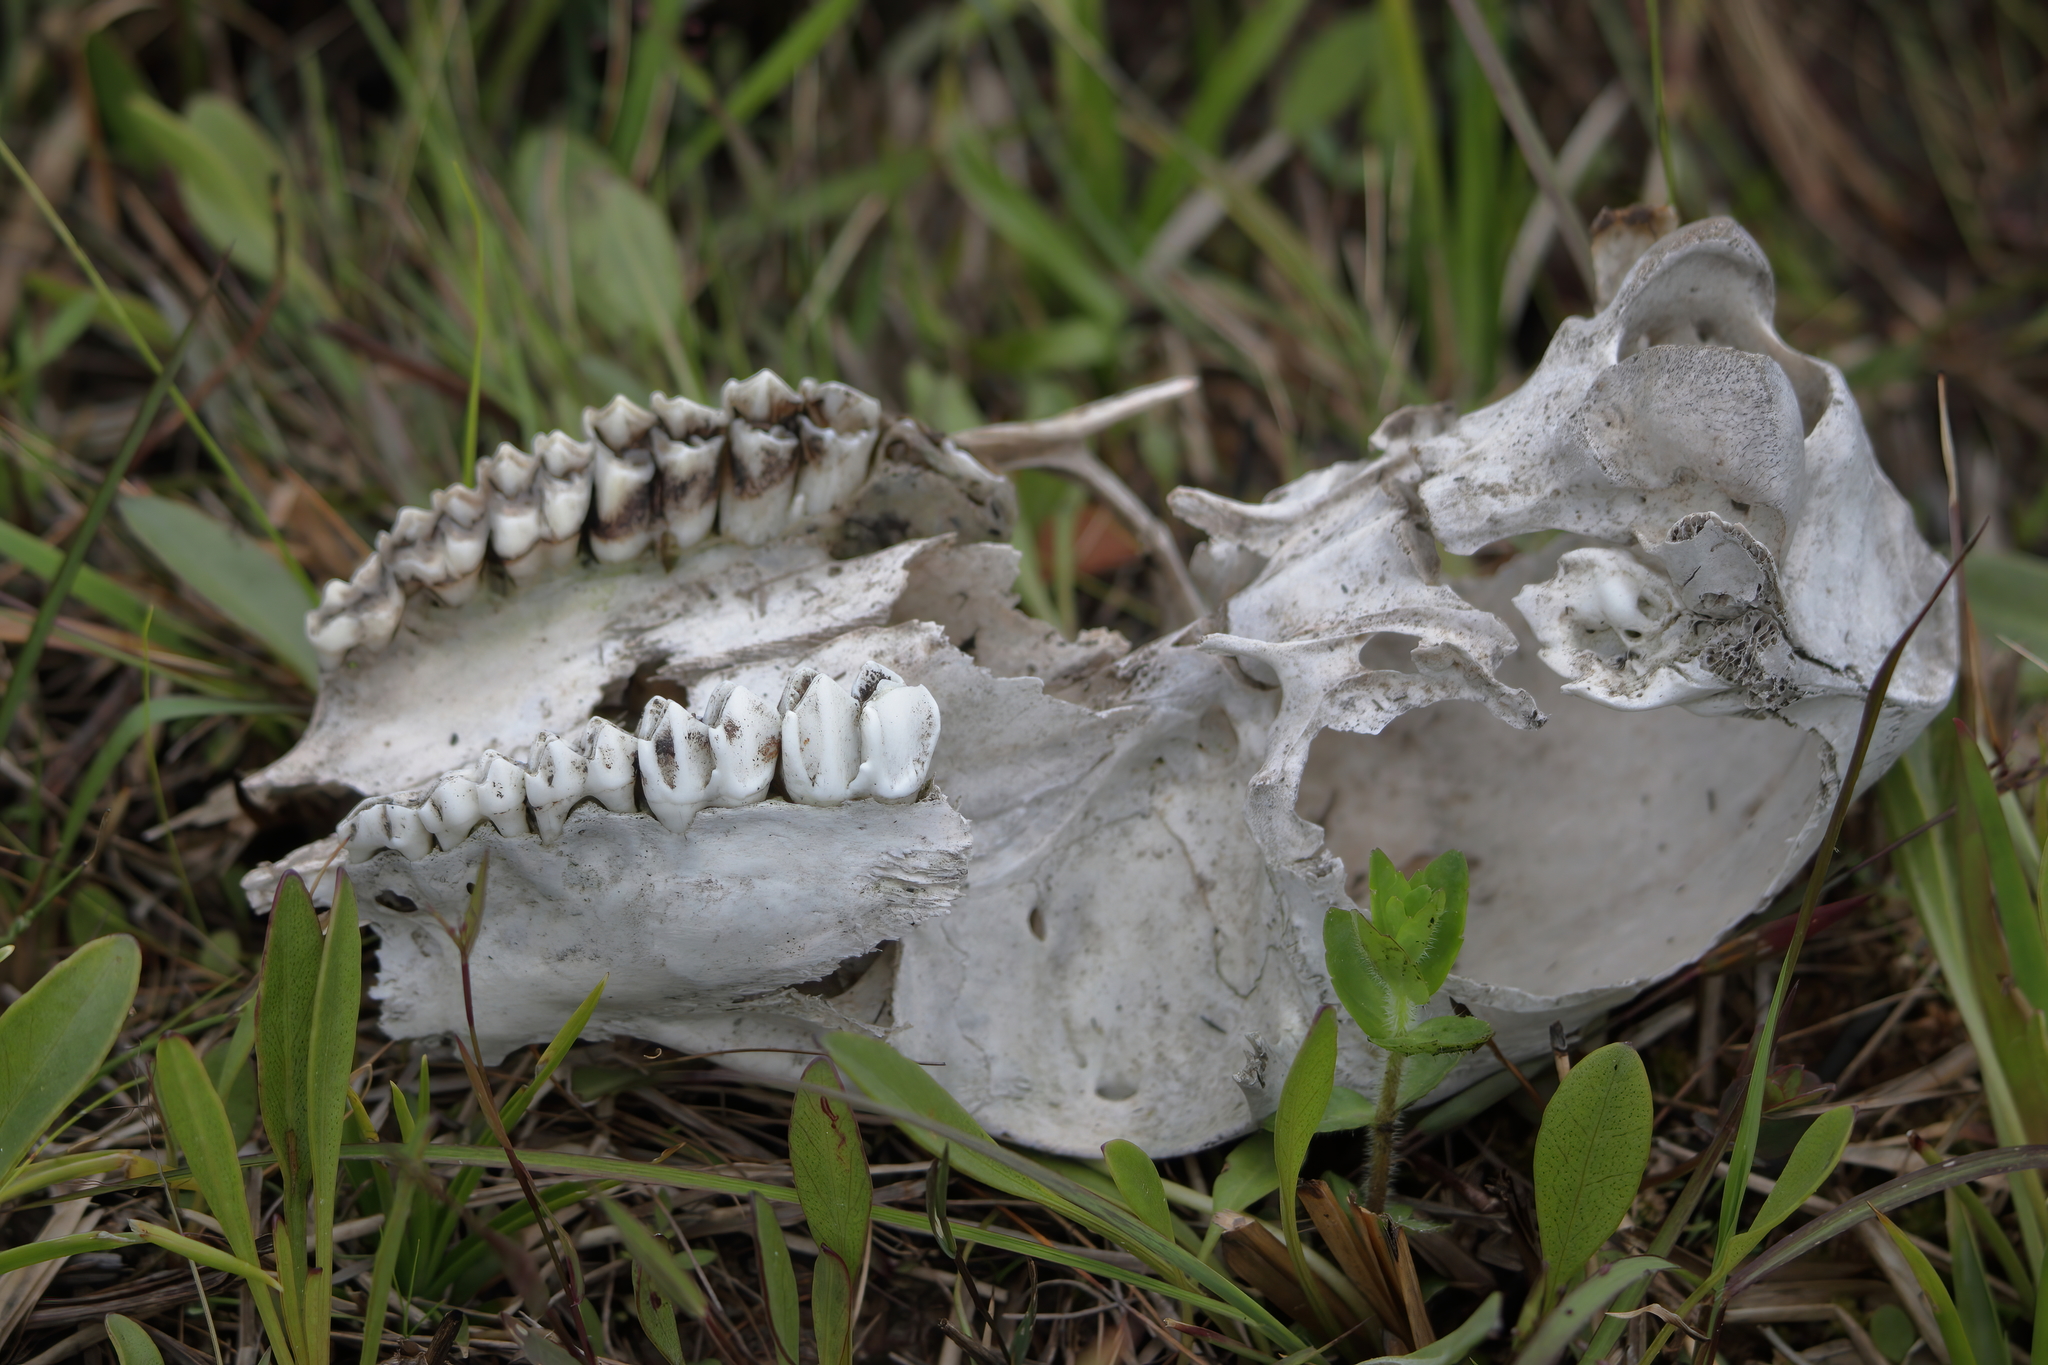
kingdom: Animalia
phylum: Chordata
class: Mammalia
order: Artiodactyla
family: Cervidae
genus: Odocoileus
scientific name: Odocoileus virginianus
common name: White-tailed deer
